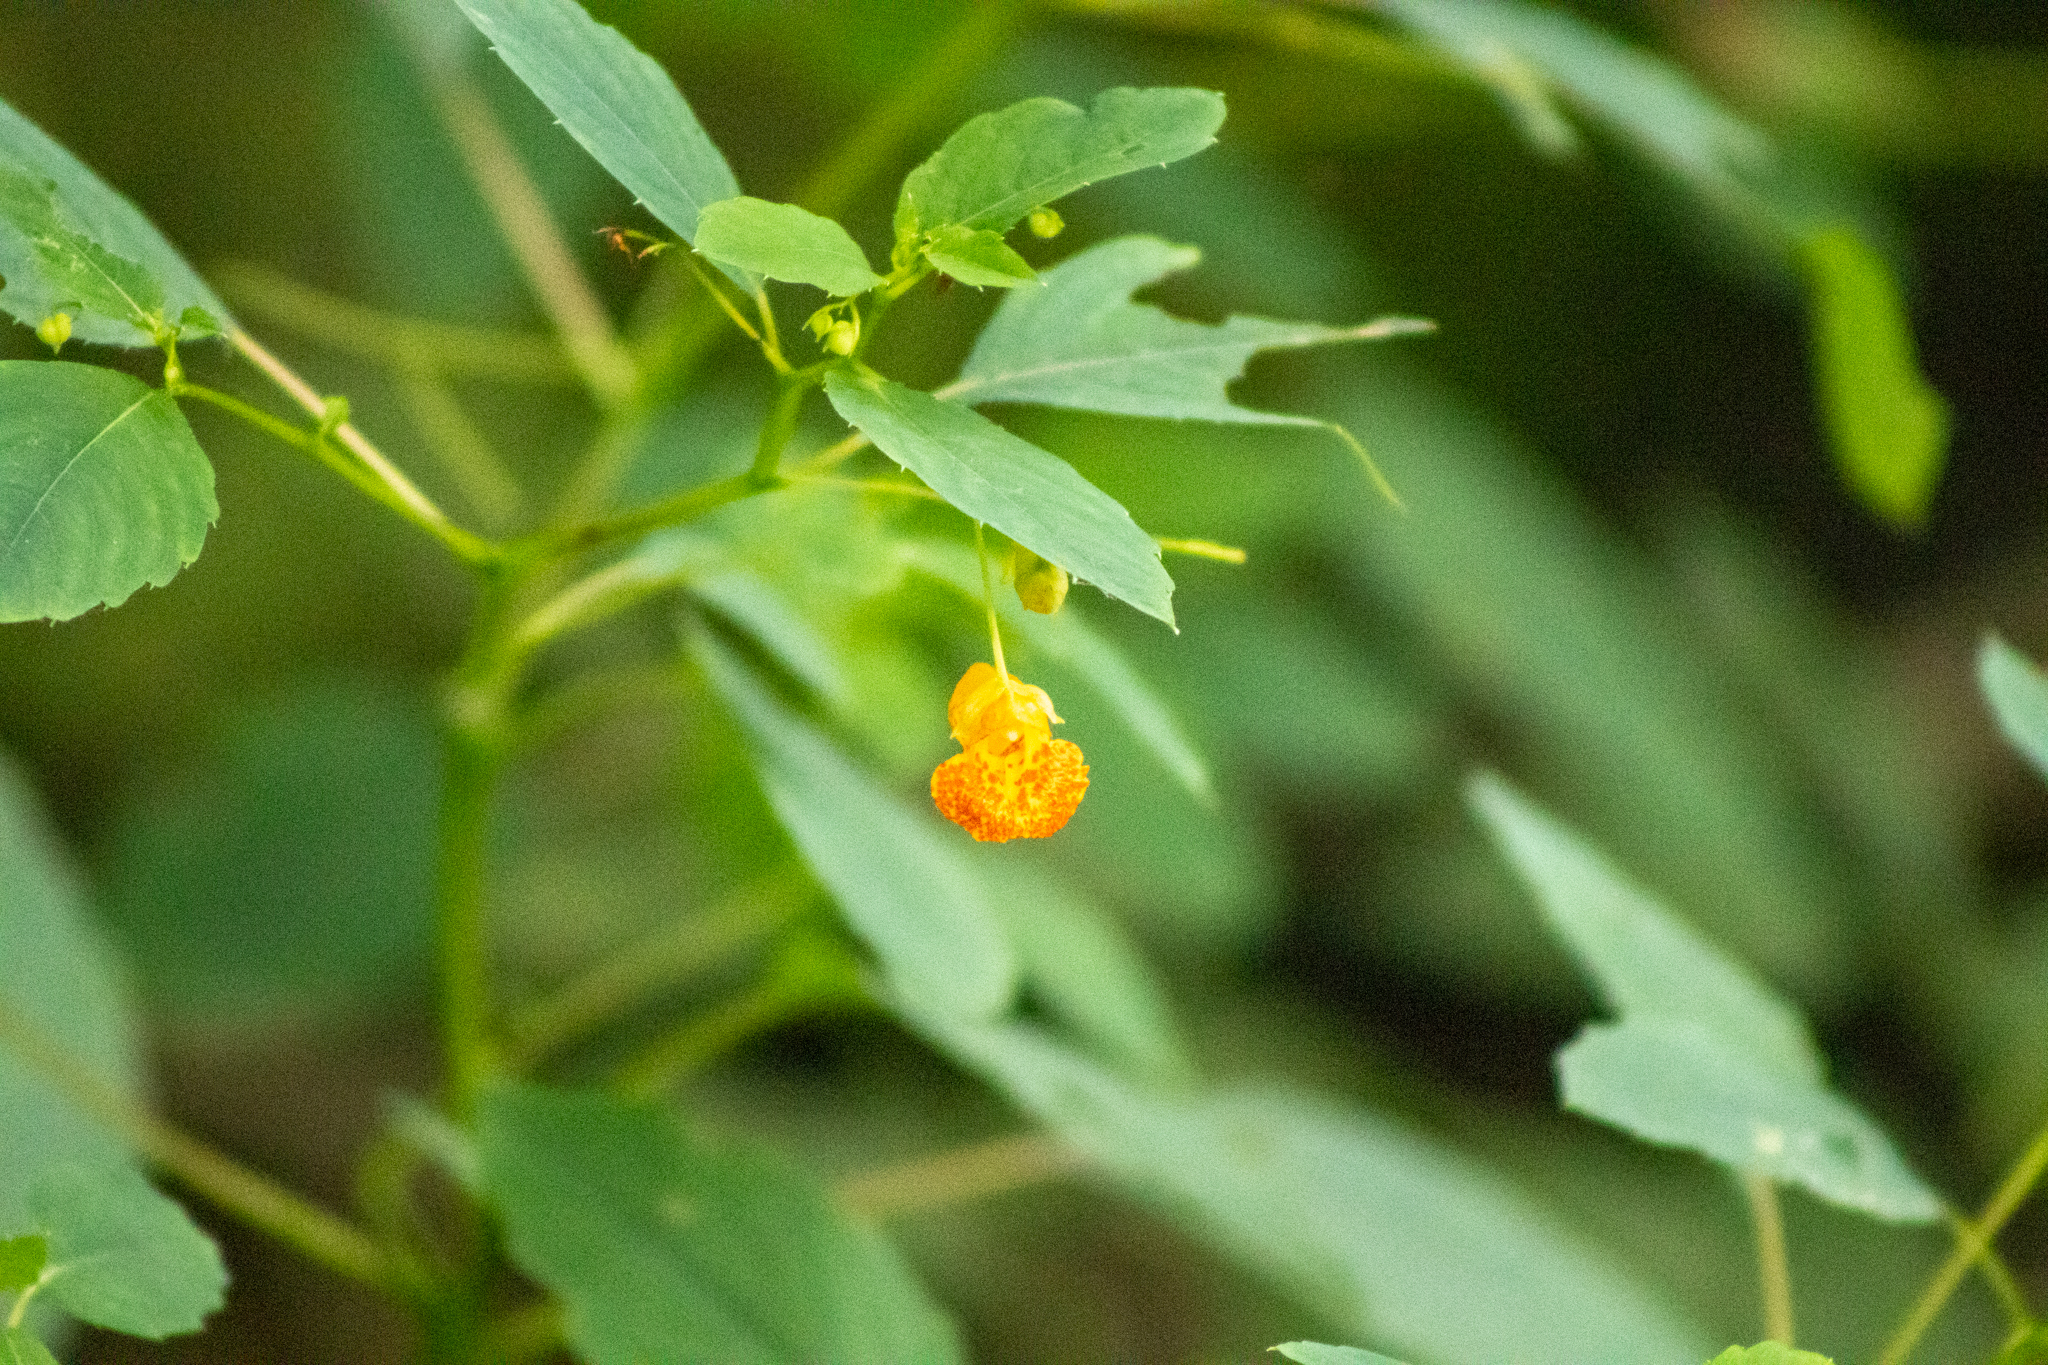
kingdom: Plantae
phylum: Tracheophyta
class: Magnoliopsida
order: Ericales
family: Balsaminaceae
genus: Impatiens
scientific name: Impatiens capensis
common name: Orange balsam
